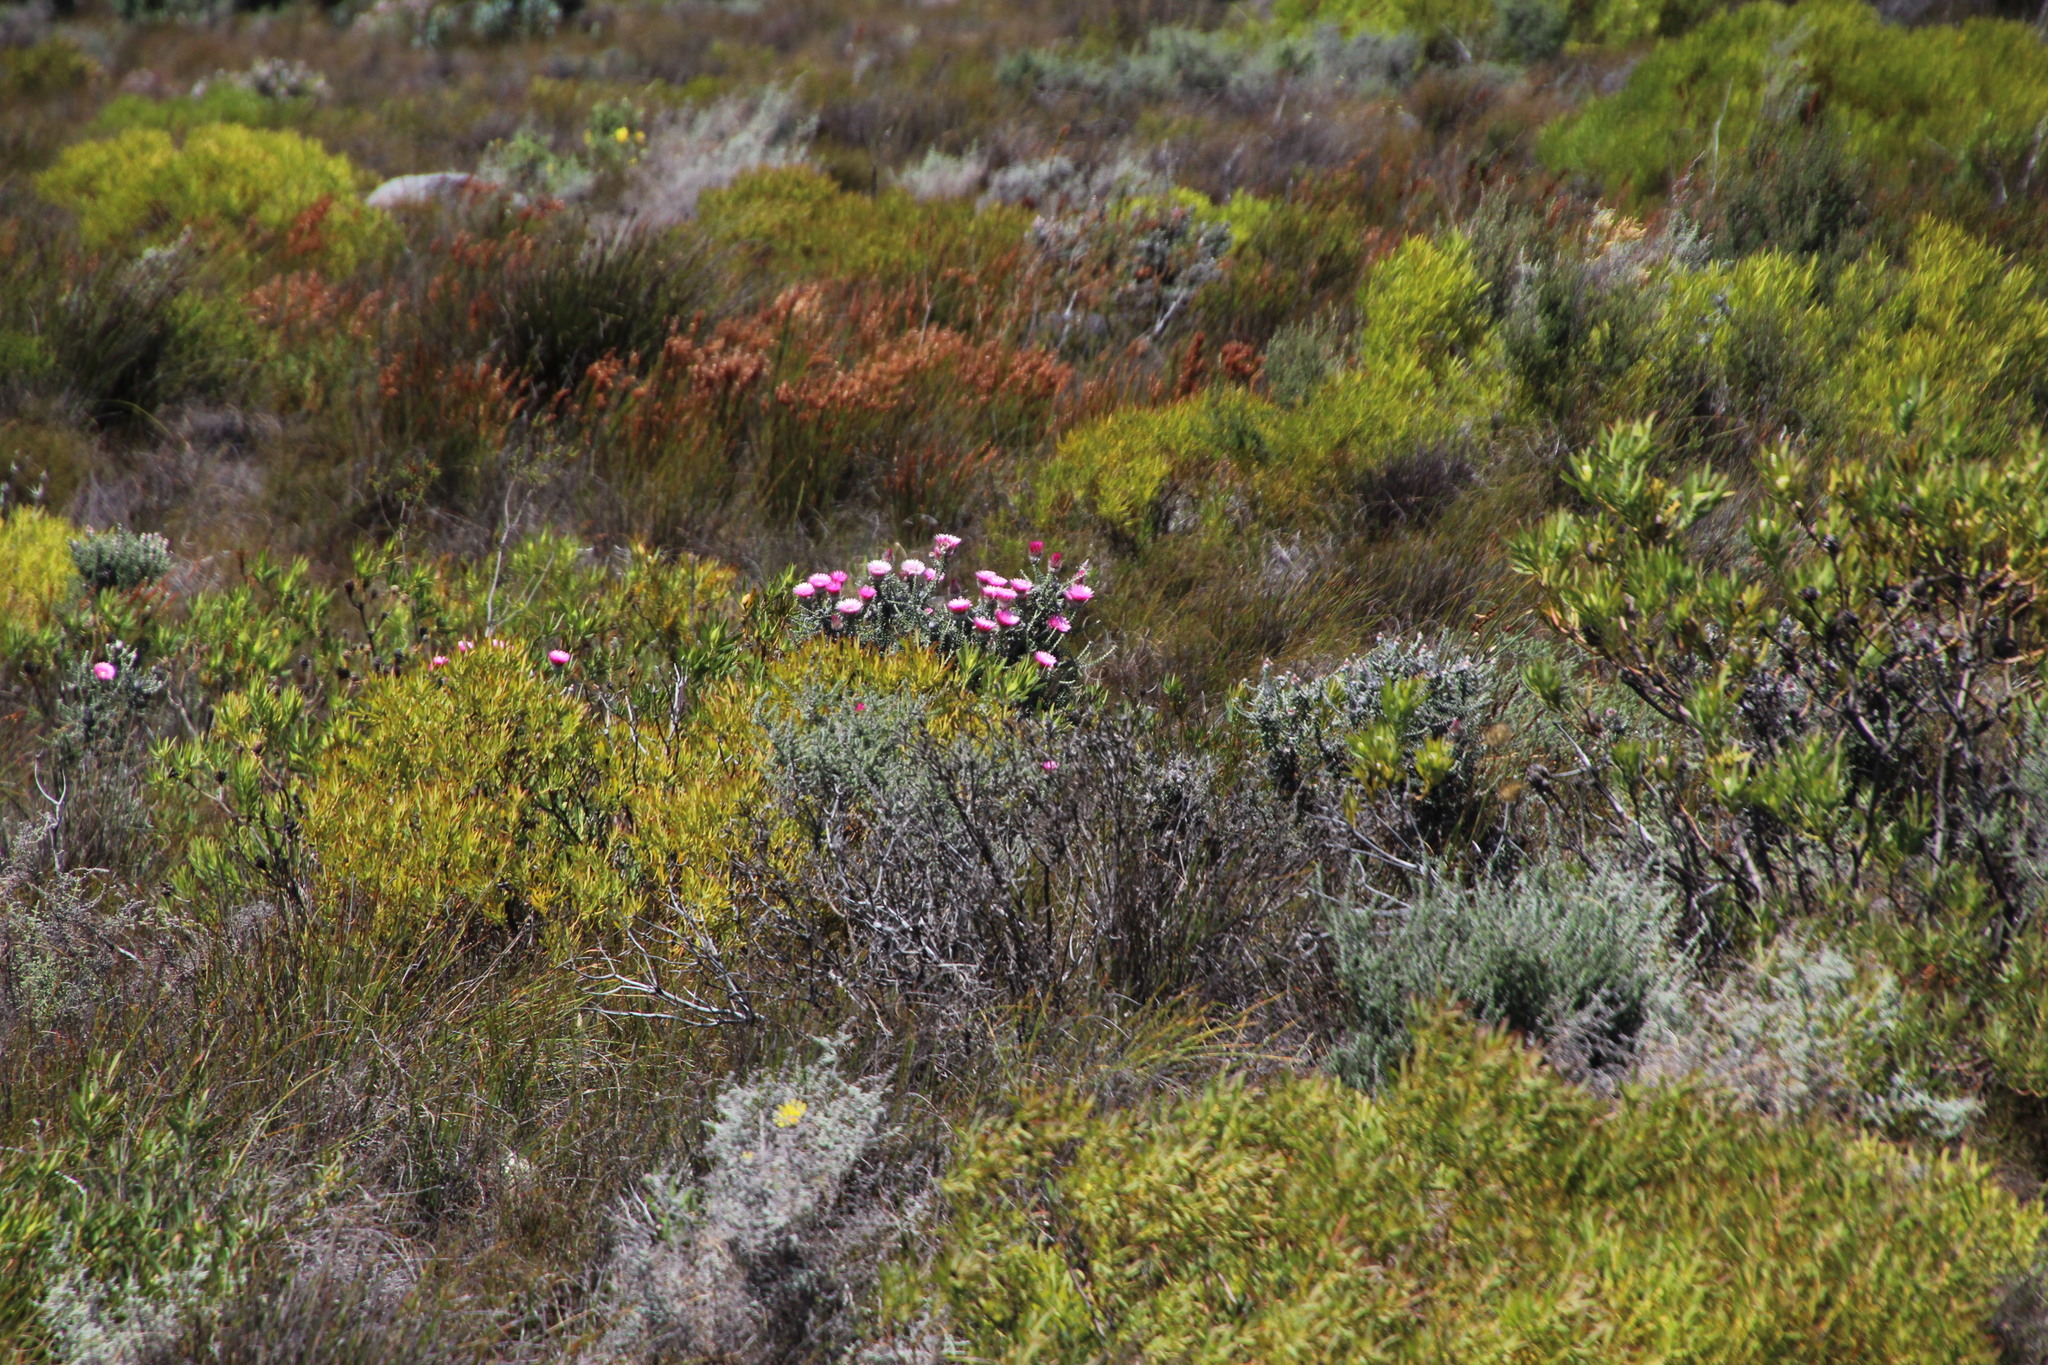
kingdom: Plantae
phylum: Tracheophyta
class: Magnoliopsida
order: Asterales
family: Asteraceae
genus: Phaenocoma
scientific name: Phaenocoma prolifera
